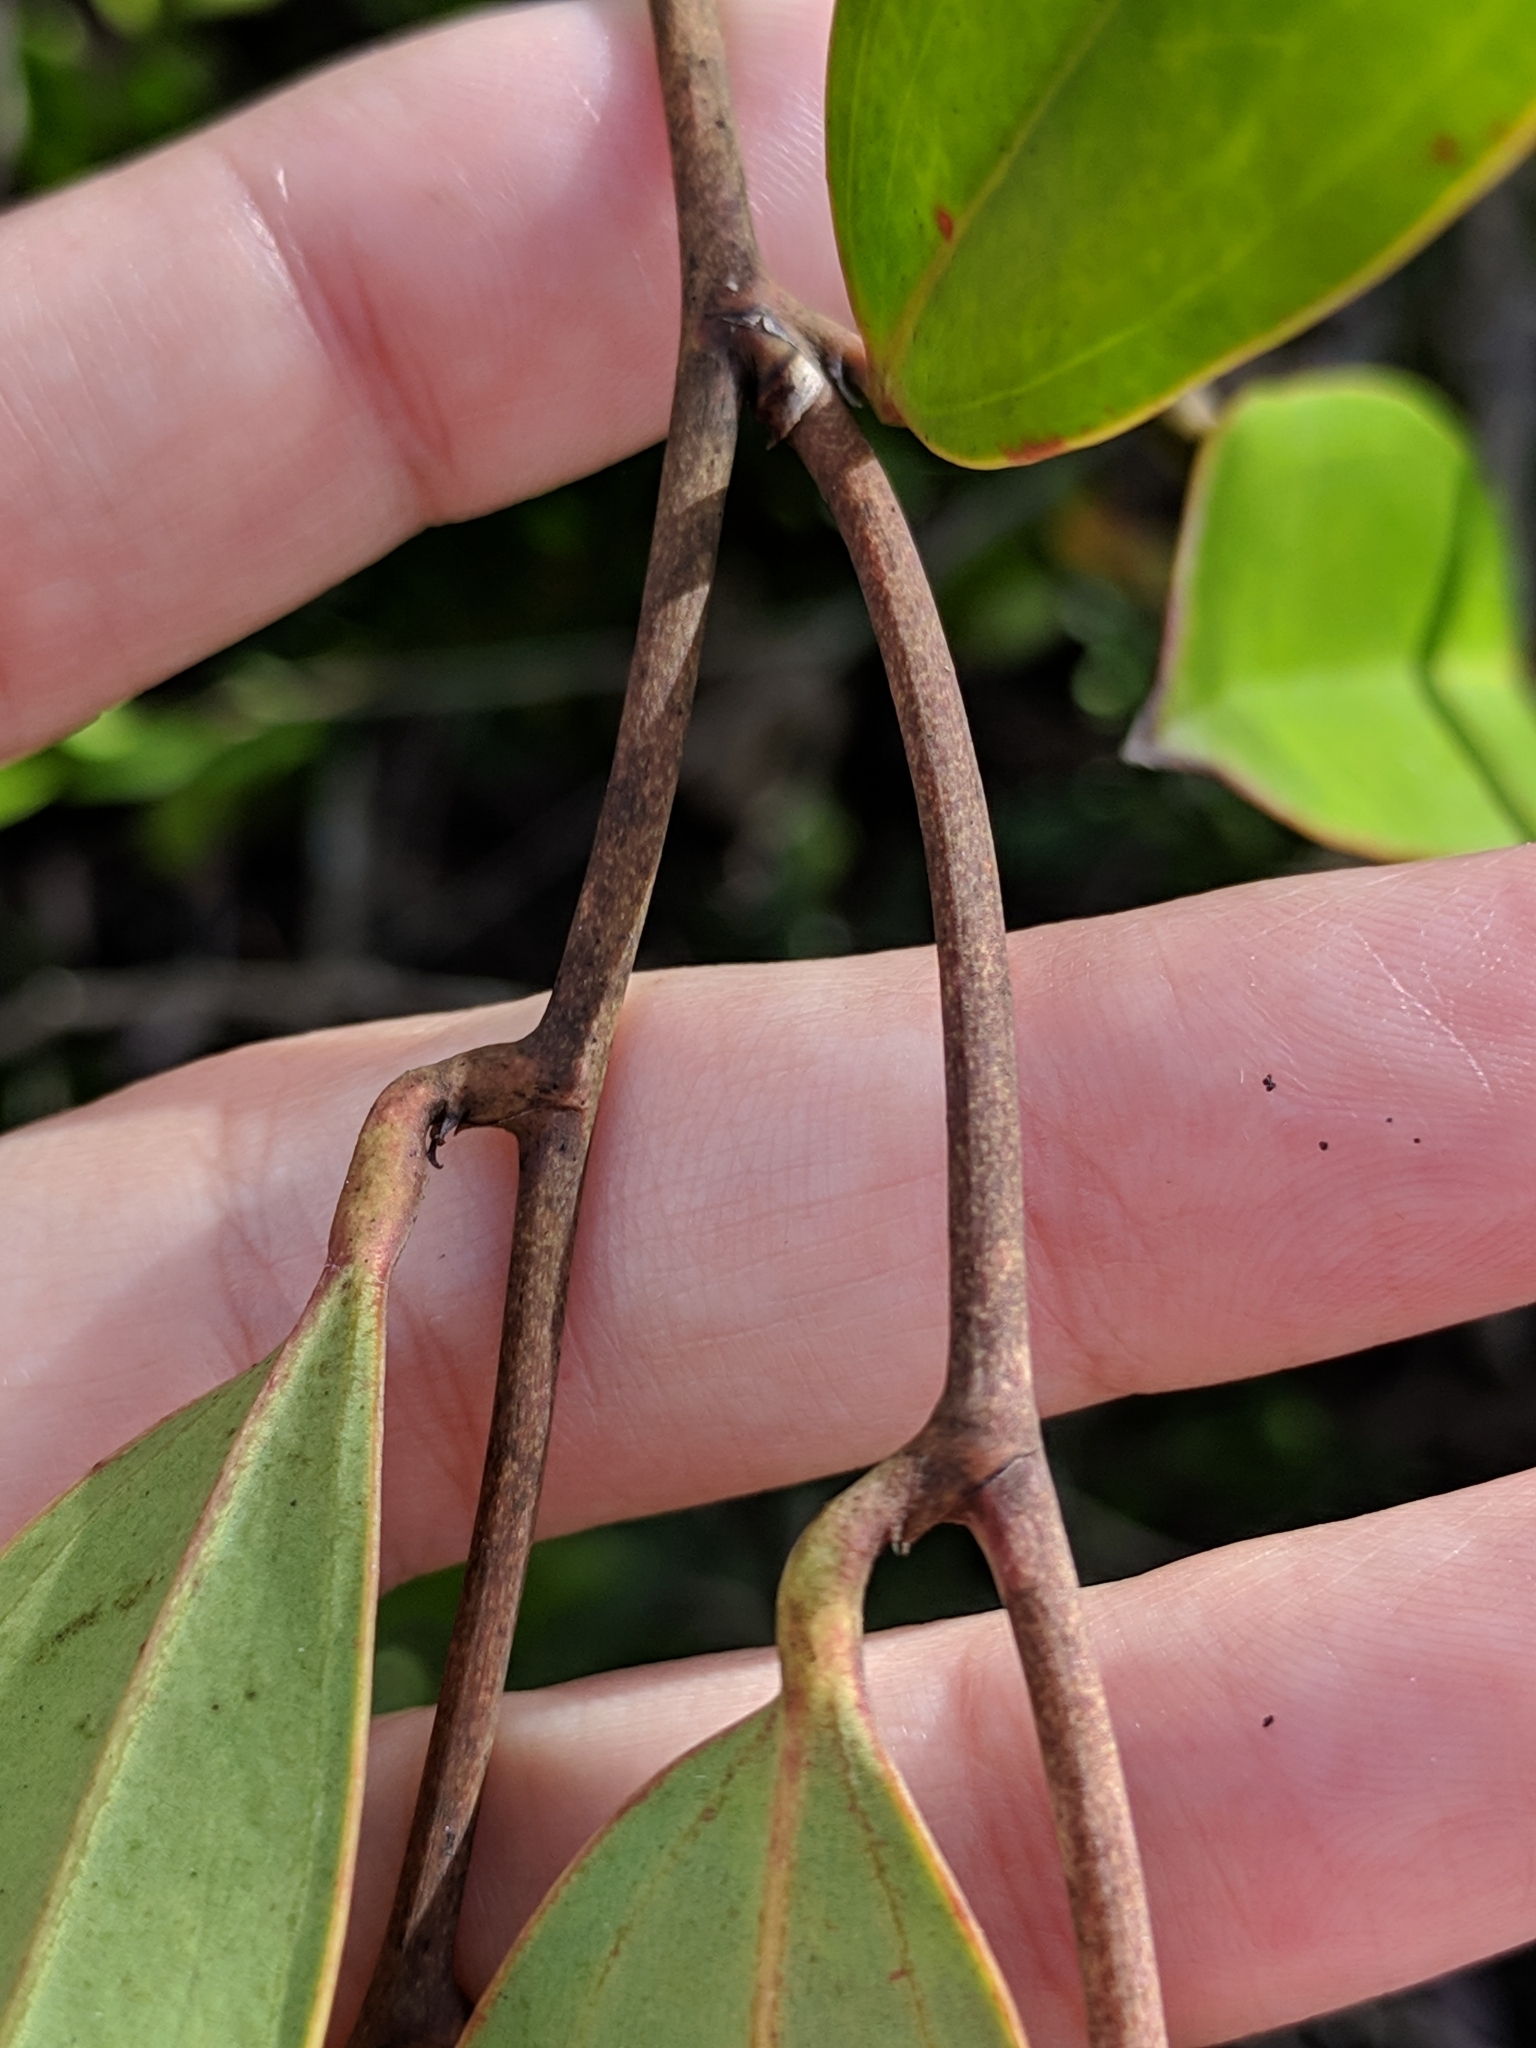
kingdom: Plantae
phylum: Tracheophyta
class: Liliopsida
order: Liliales
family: Smilacaceae
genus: Smilax
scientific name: Smilax laurifolia
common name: Bamboovine
